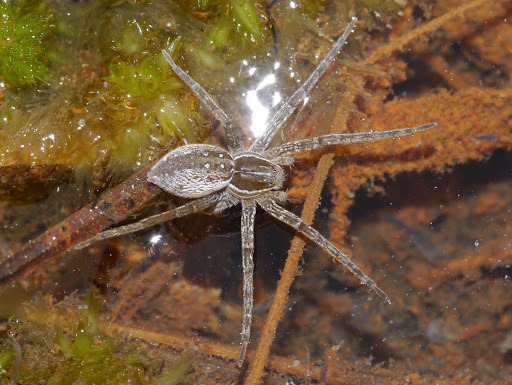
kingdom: Animalia
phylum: Arthropoda
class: Arachnida
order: Araneae
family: Pisauridae
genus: Dolomedes
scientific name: Dolomedes triton
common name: Six-spotted fishing spider
